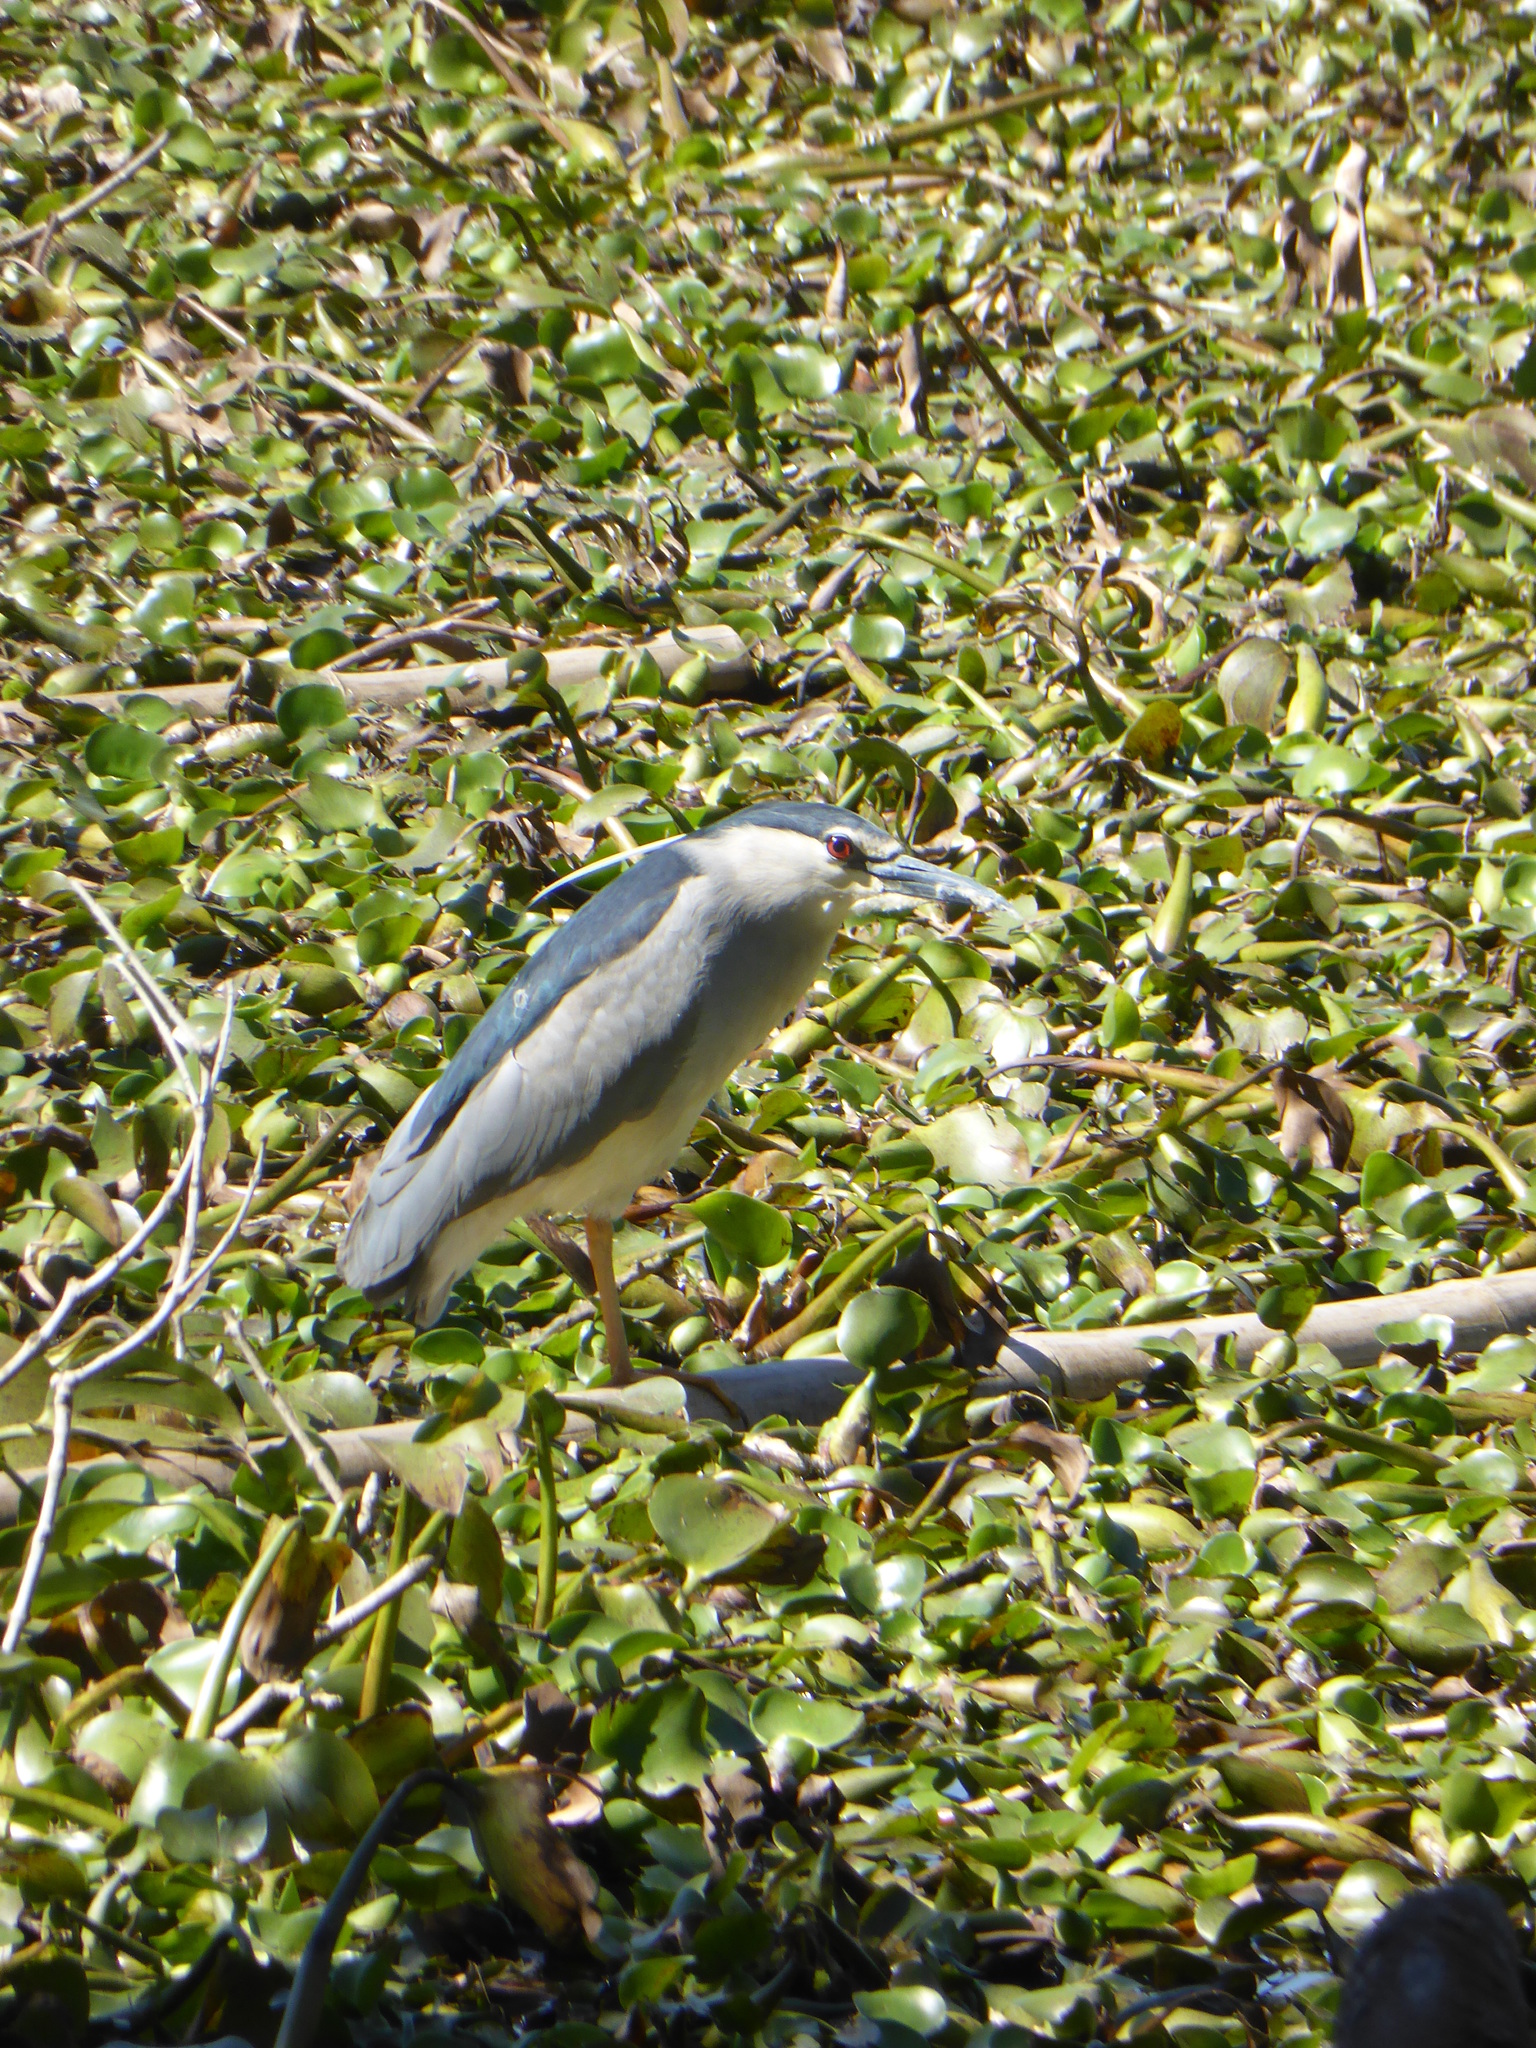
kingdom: Animalia
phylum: Chordata
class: Aves
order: Pelecaniformes
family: Ardeidae
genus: Nycticorax
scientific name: Nycticorax nycticorax
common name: Black-crowned night heron
